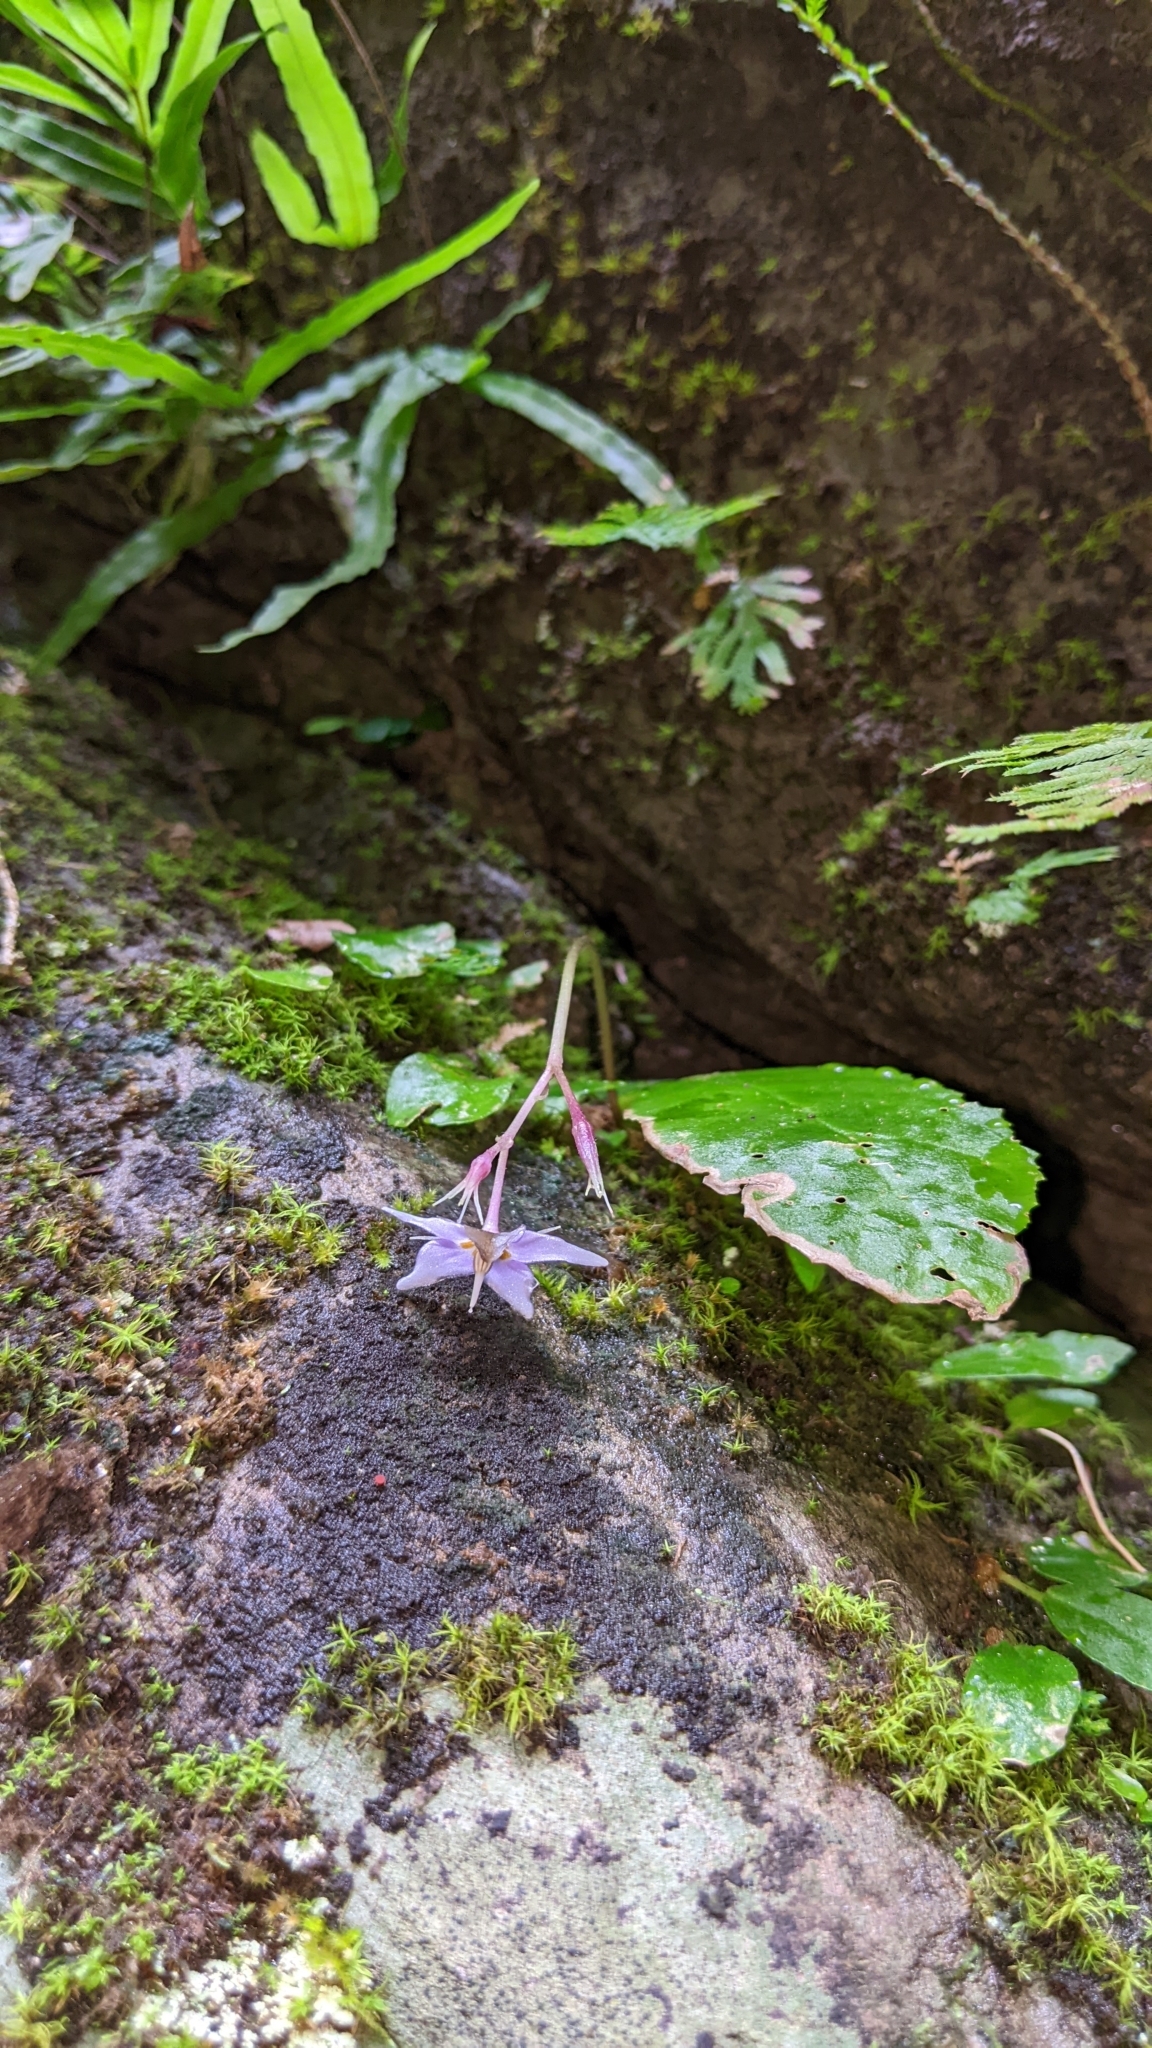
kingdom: Plantae
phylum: Tracheophyta
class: Magnoliopsida
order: Lamiales
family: Gesneriaceae
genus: Conandron
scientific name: Conandron ramondioides
